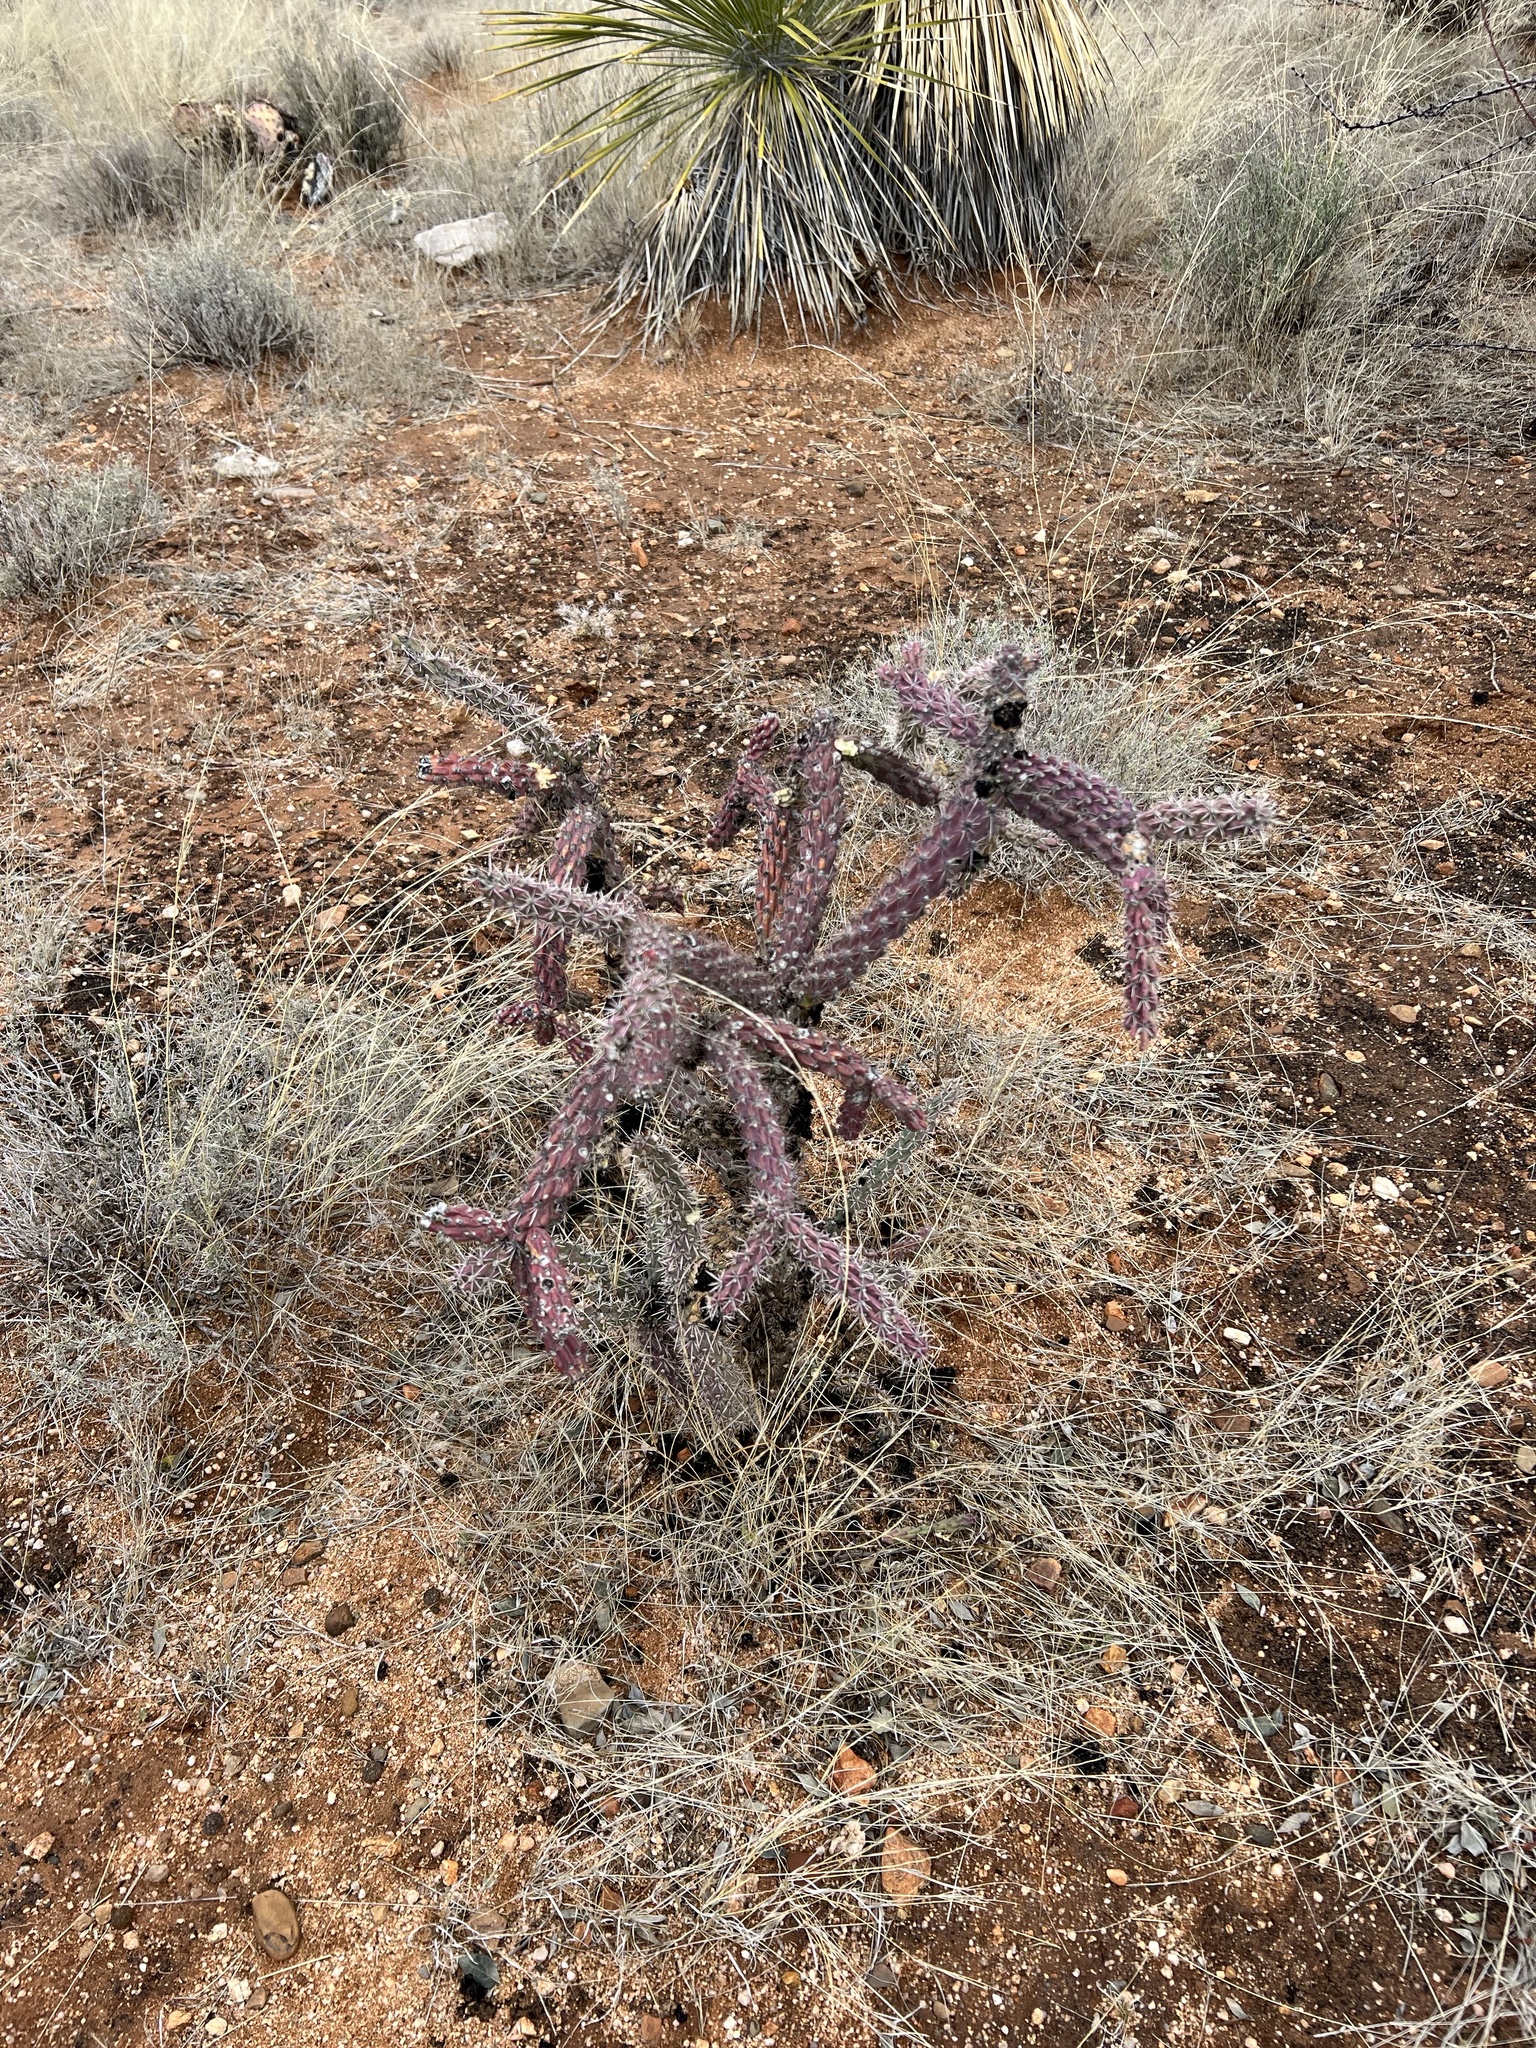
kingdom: Plantae
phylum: Tracheophyta
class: Magnoliopsida
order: Caryophyllales
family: Cactaceae
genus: Cylindropuntia
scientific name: Cylindropuntia imbricata
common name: Candelabrum cactus
